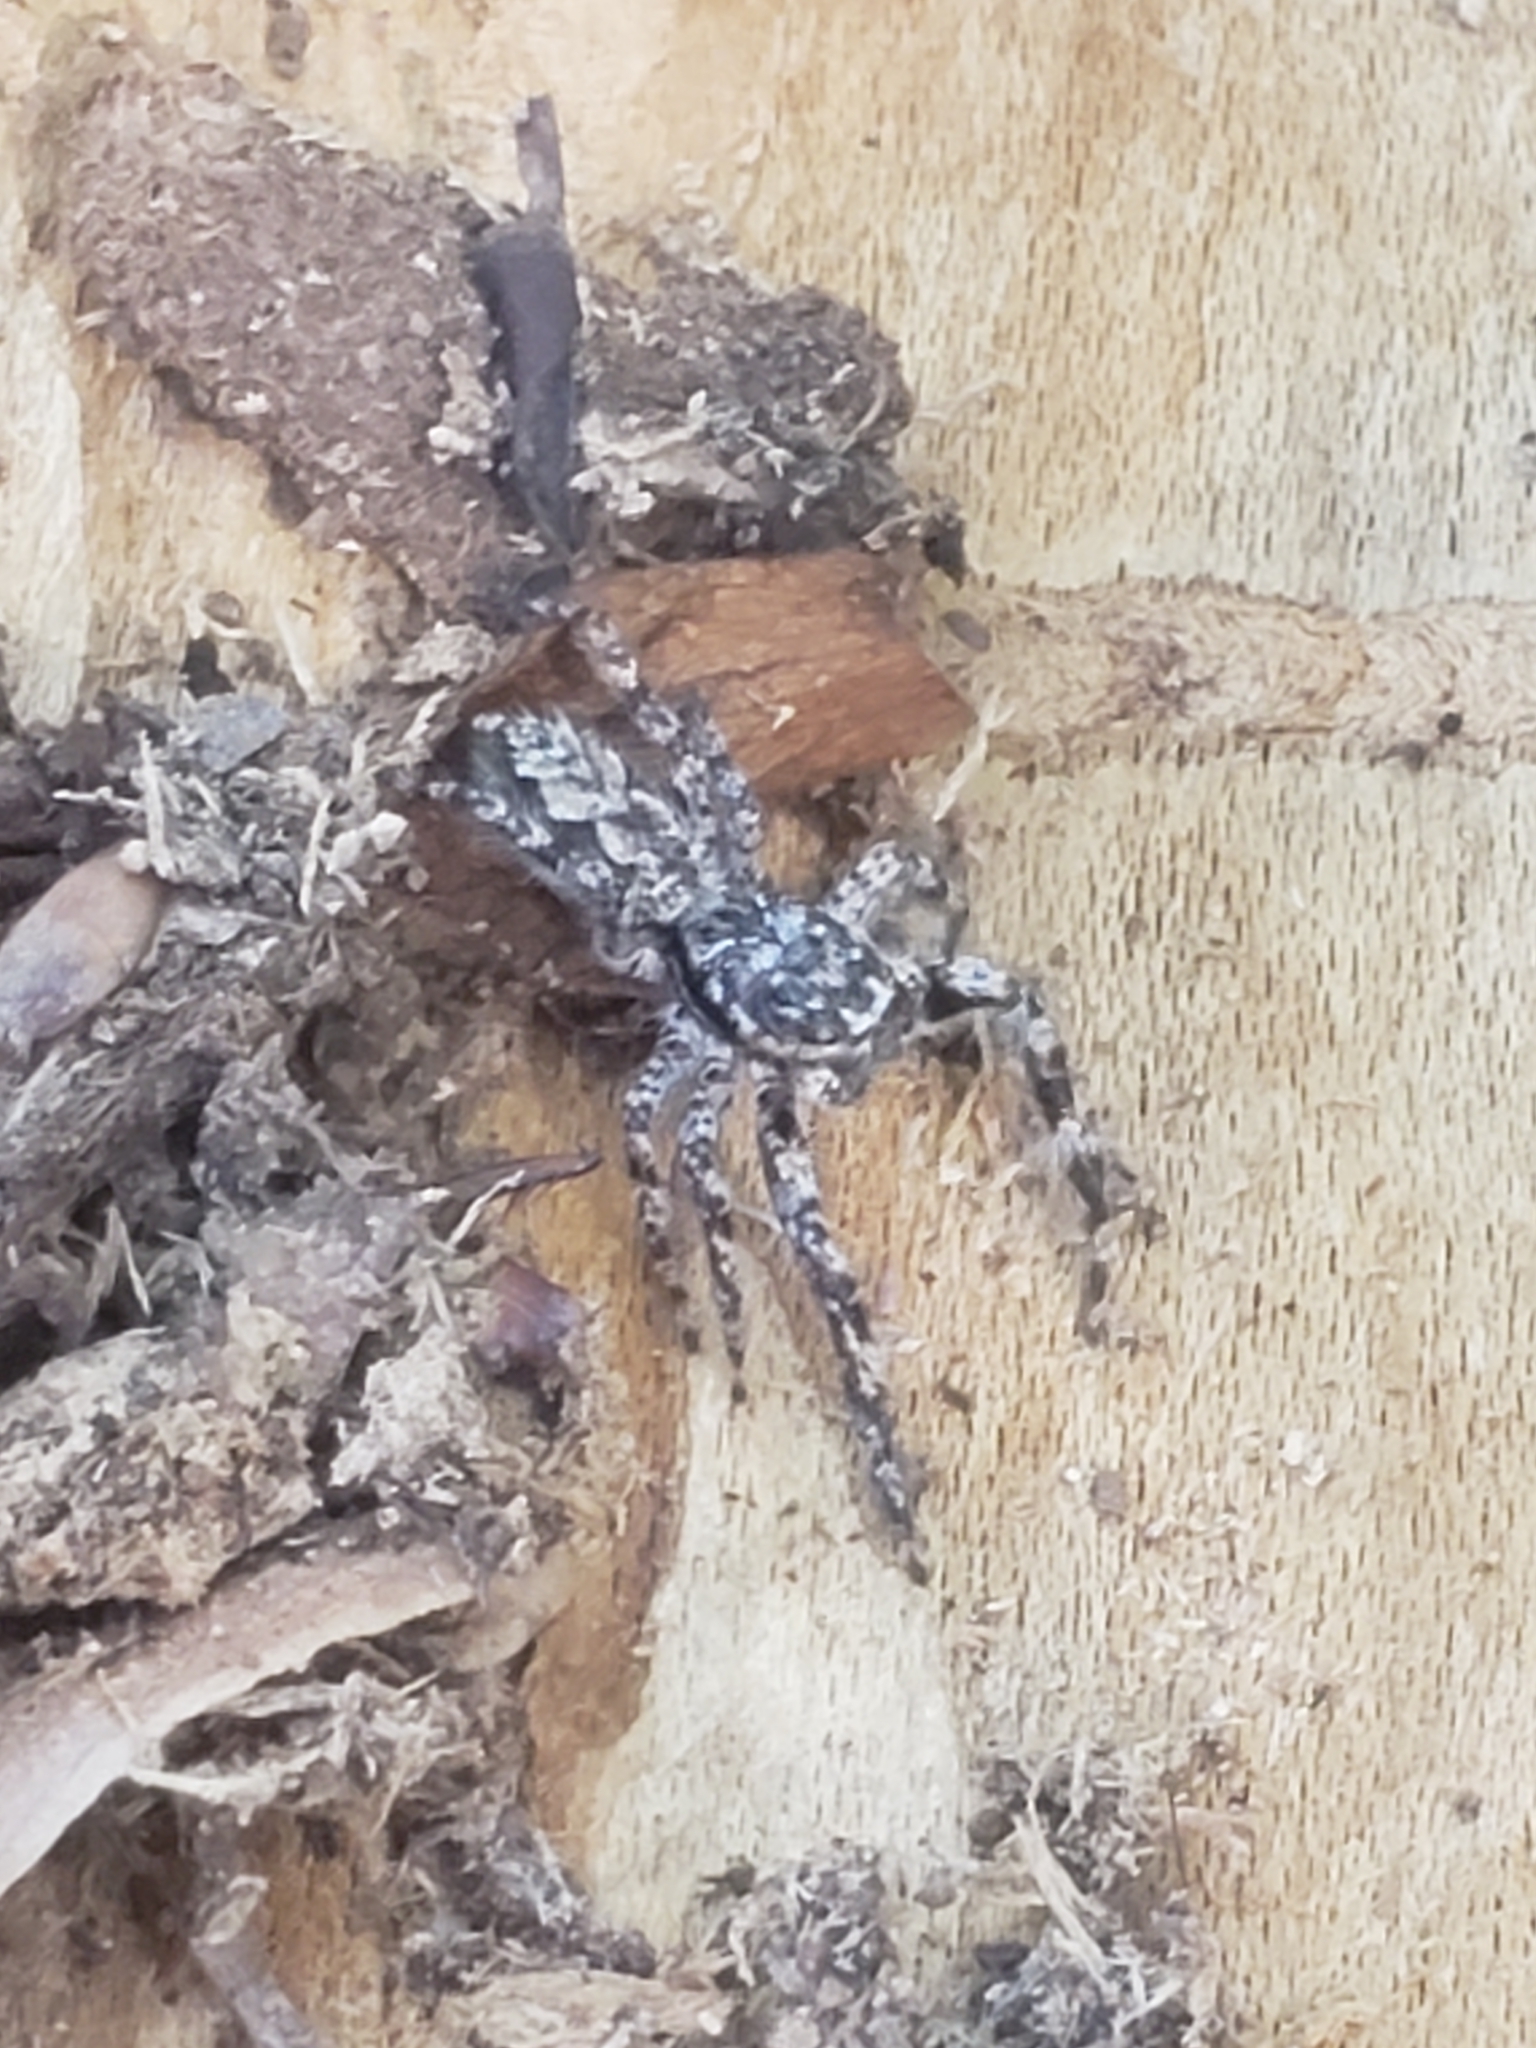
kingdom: Animalia
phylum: Arthropoda
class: Arachnida
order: Araneae
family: Salticidae
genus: Platycryptus
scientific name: Platycryptus undatus
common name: Tan jumping spider
